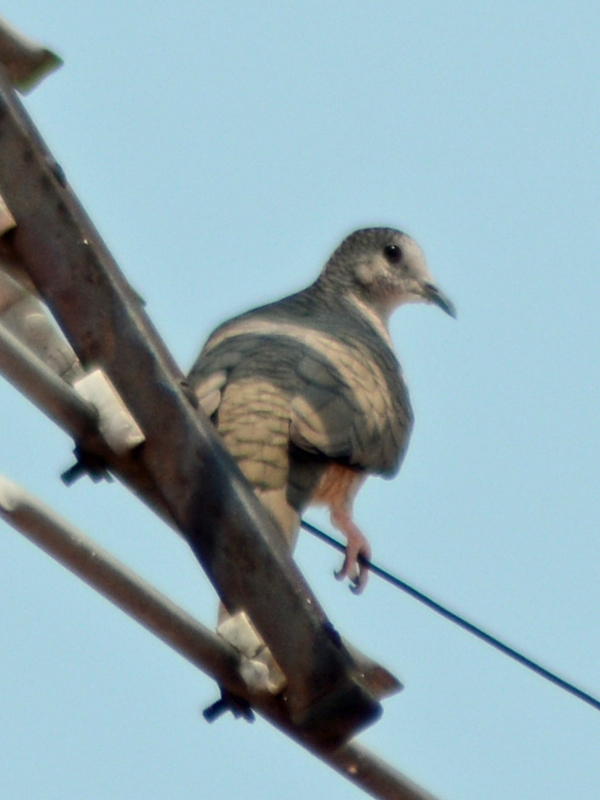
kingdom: Animalia
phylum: Chordata
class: Aves
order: Columbiformes
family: Columbidae
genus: Columbina
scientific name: Columbina inca
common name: Inca dove
